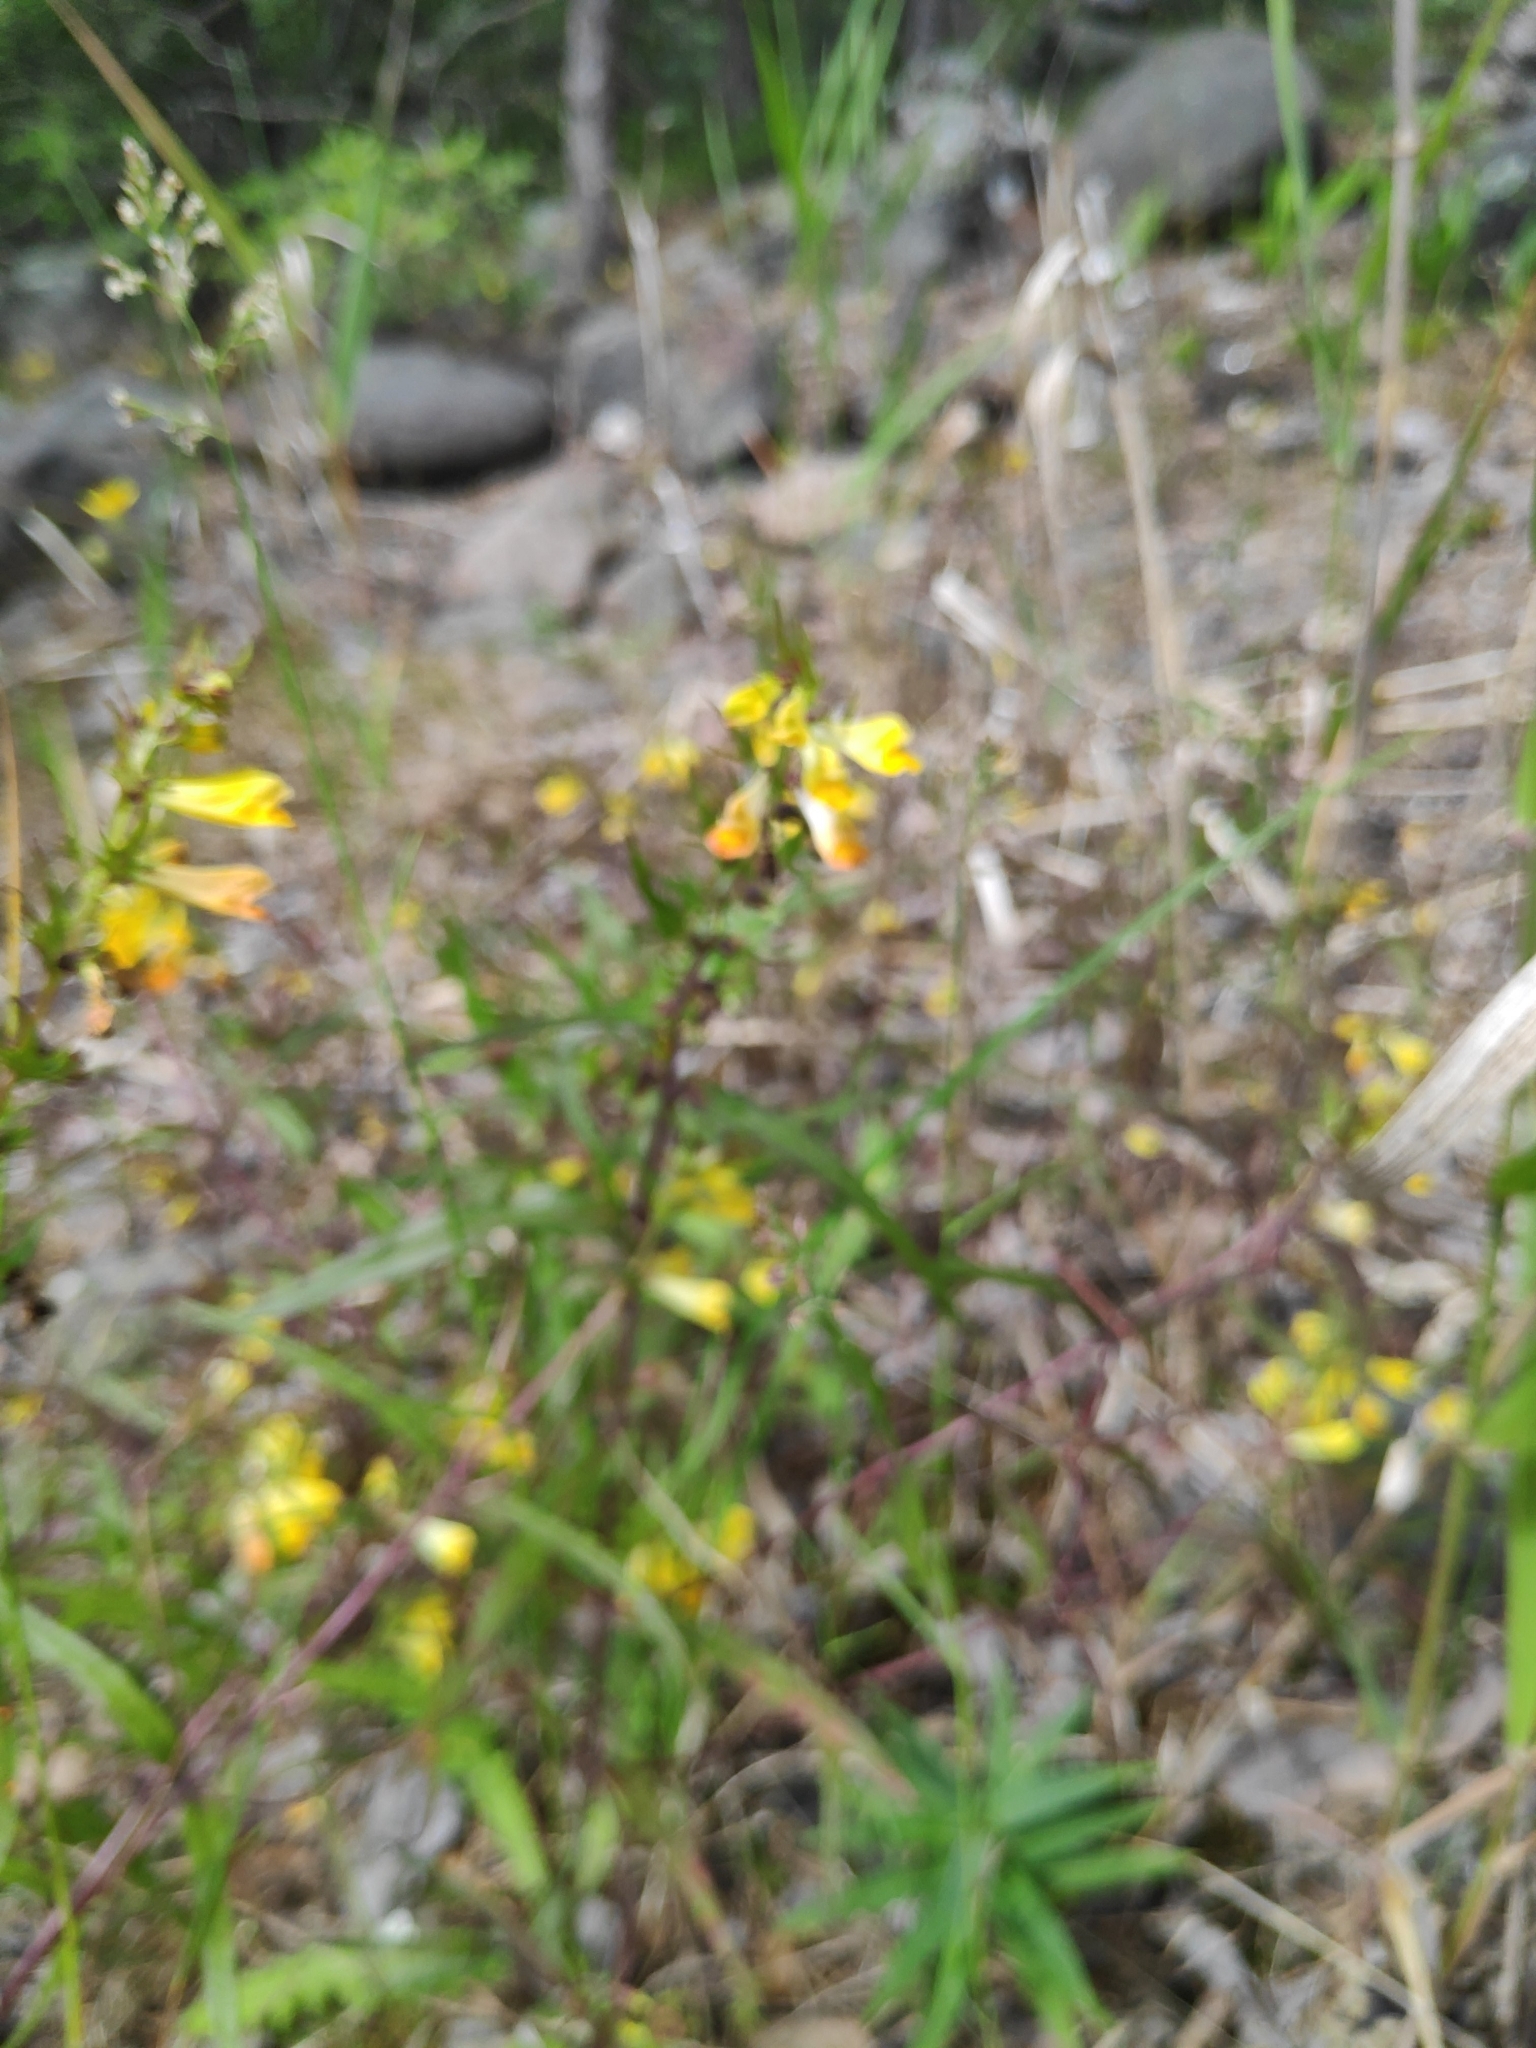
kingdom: Plantae
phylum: Tracheophyta
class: Magnoliopsida
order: Lamiales
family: Orobanchaceae
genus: Melampyrum
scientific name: Melampyrum pratense
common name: Common cow-wheat
